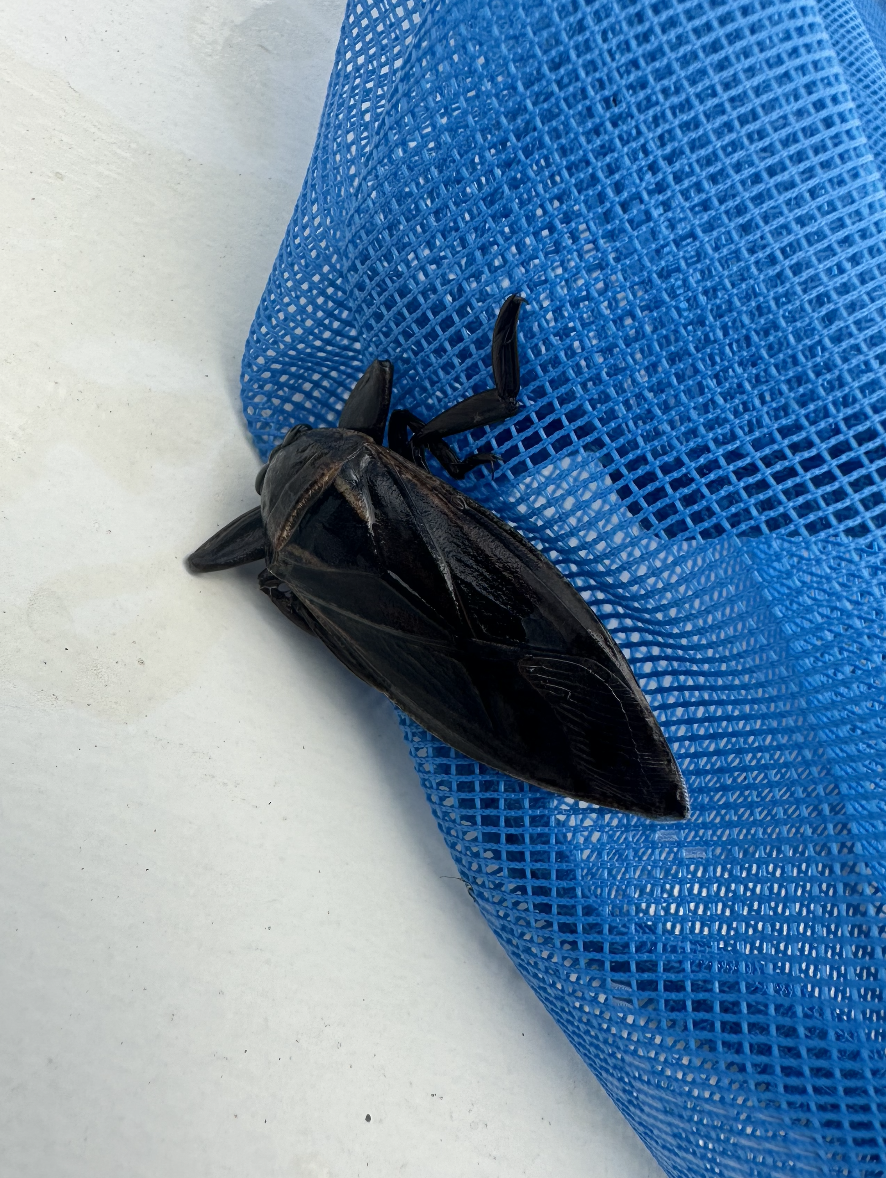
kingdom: Animalia
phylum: Arthropoda
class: Insecta
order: Hemiptera
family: Belostomatidae
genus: Lethocerus
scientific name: Lethocerus uhleri
